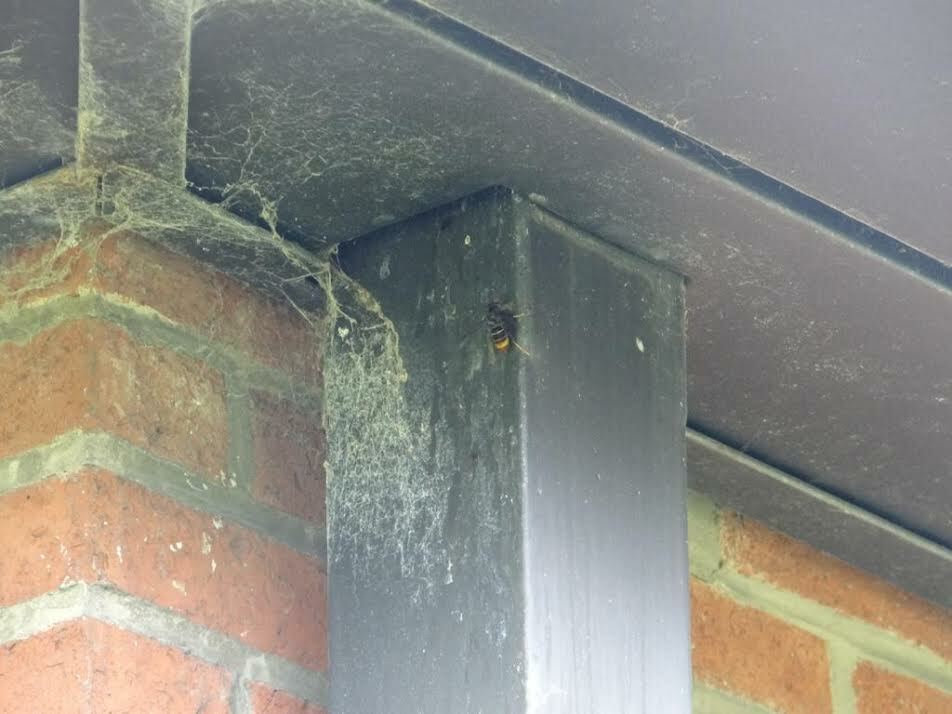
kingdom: Animalia
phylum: Arthropoda
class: Insecta
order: Hymenoptera
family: Vespidae
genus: Vespa
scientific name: Vespa velutina
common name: Asian hornet
